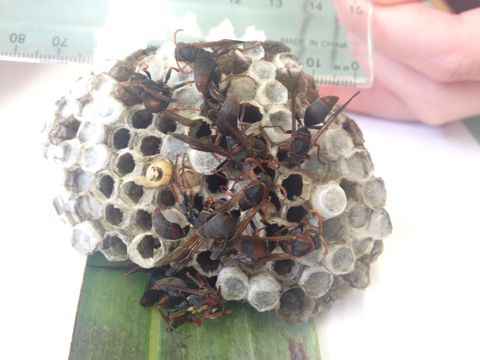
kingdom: Animalia
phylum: Arthropoda
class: Insecta
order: Hymenoptera
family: Eumenidae
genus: Polistes
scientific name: Polistes humilis
